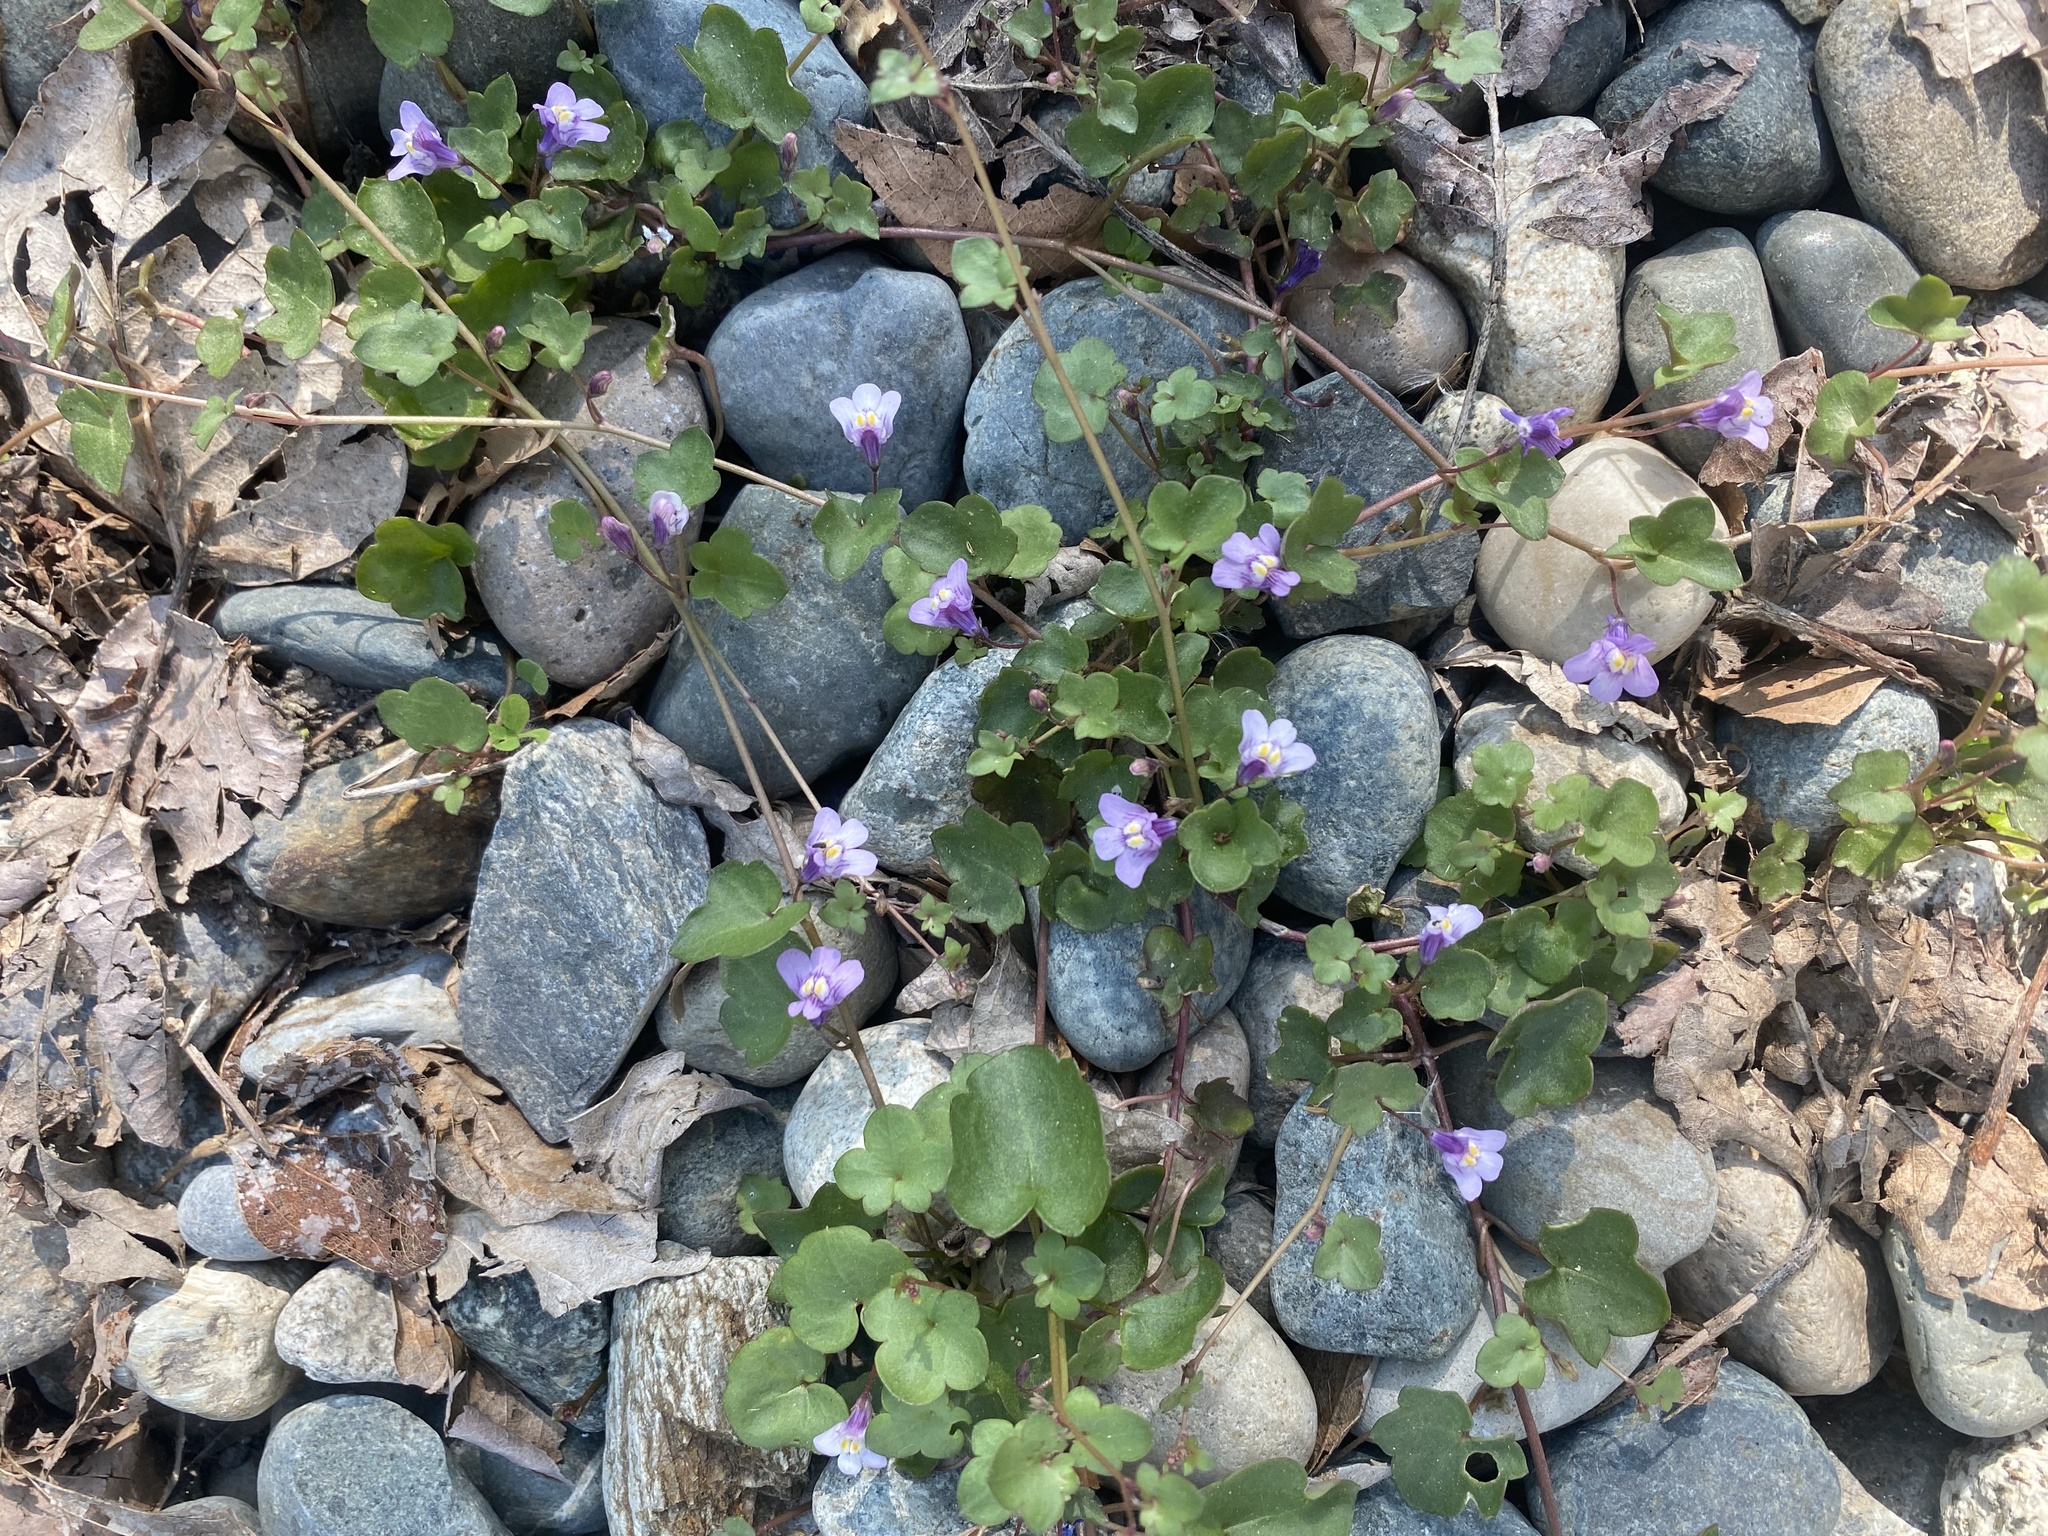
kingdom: Plantae
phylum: Tracheophyta
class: Magnoliopsida
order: Lamiales
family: Plantaginaceae
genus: Cymbalaria
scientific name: Cymbalaria muralis
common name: Ivy-leaved toadflax
